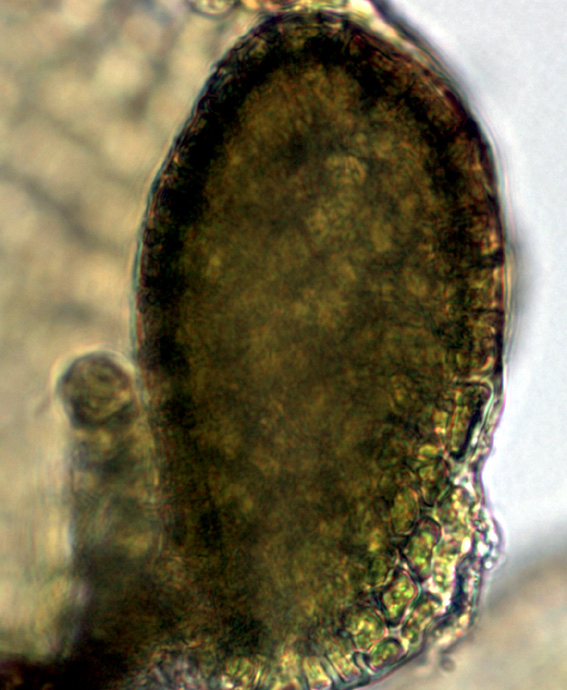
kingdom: Plantae
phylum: Marchantiophyta
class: Jungermanniopsida
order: Porellales
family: Frullaniaceae
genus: Frullania
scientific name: Frullania toropuku
